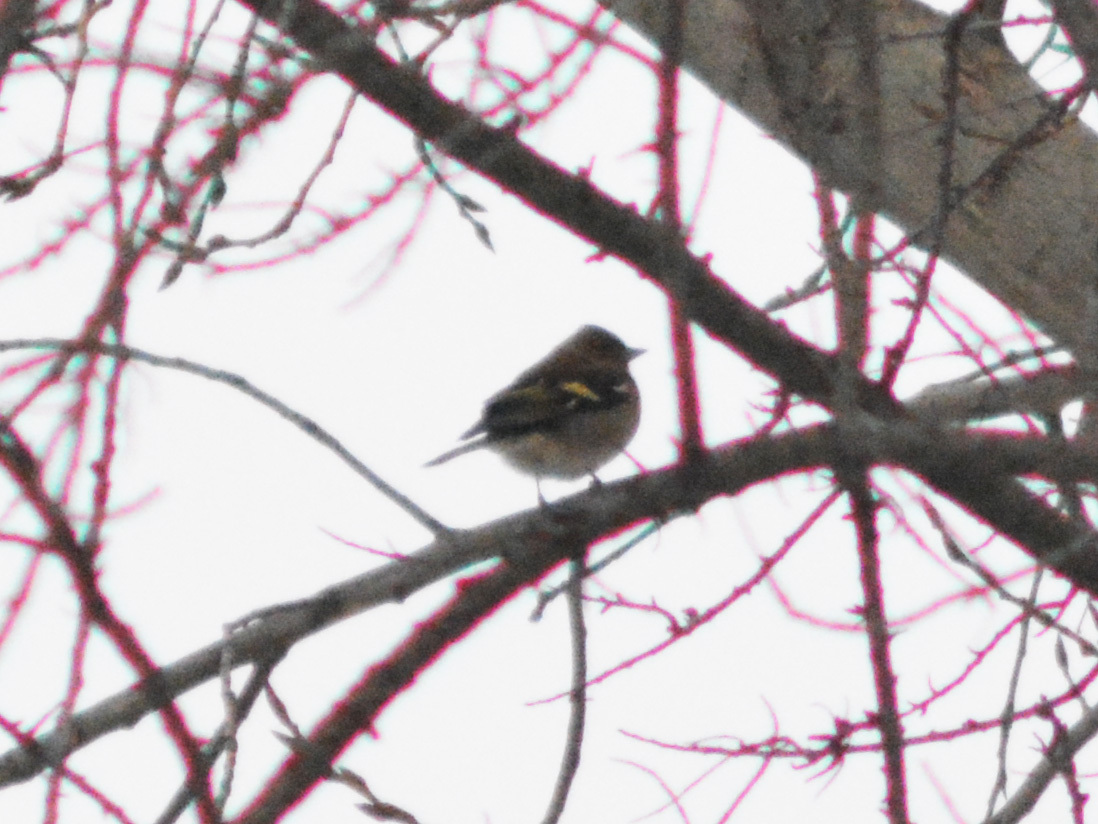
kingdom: Animalia
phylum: Chordata
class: Aves
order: Passeriformes
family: Fringillidae
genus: Fringilla
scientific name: Fringilla coelebs
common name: Common chaffinch
